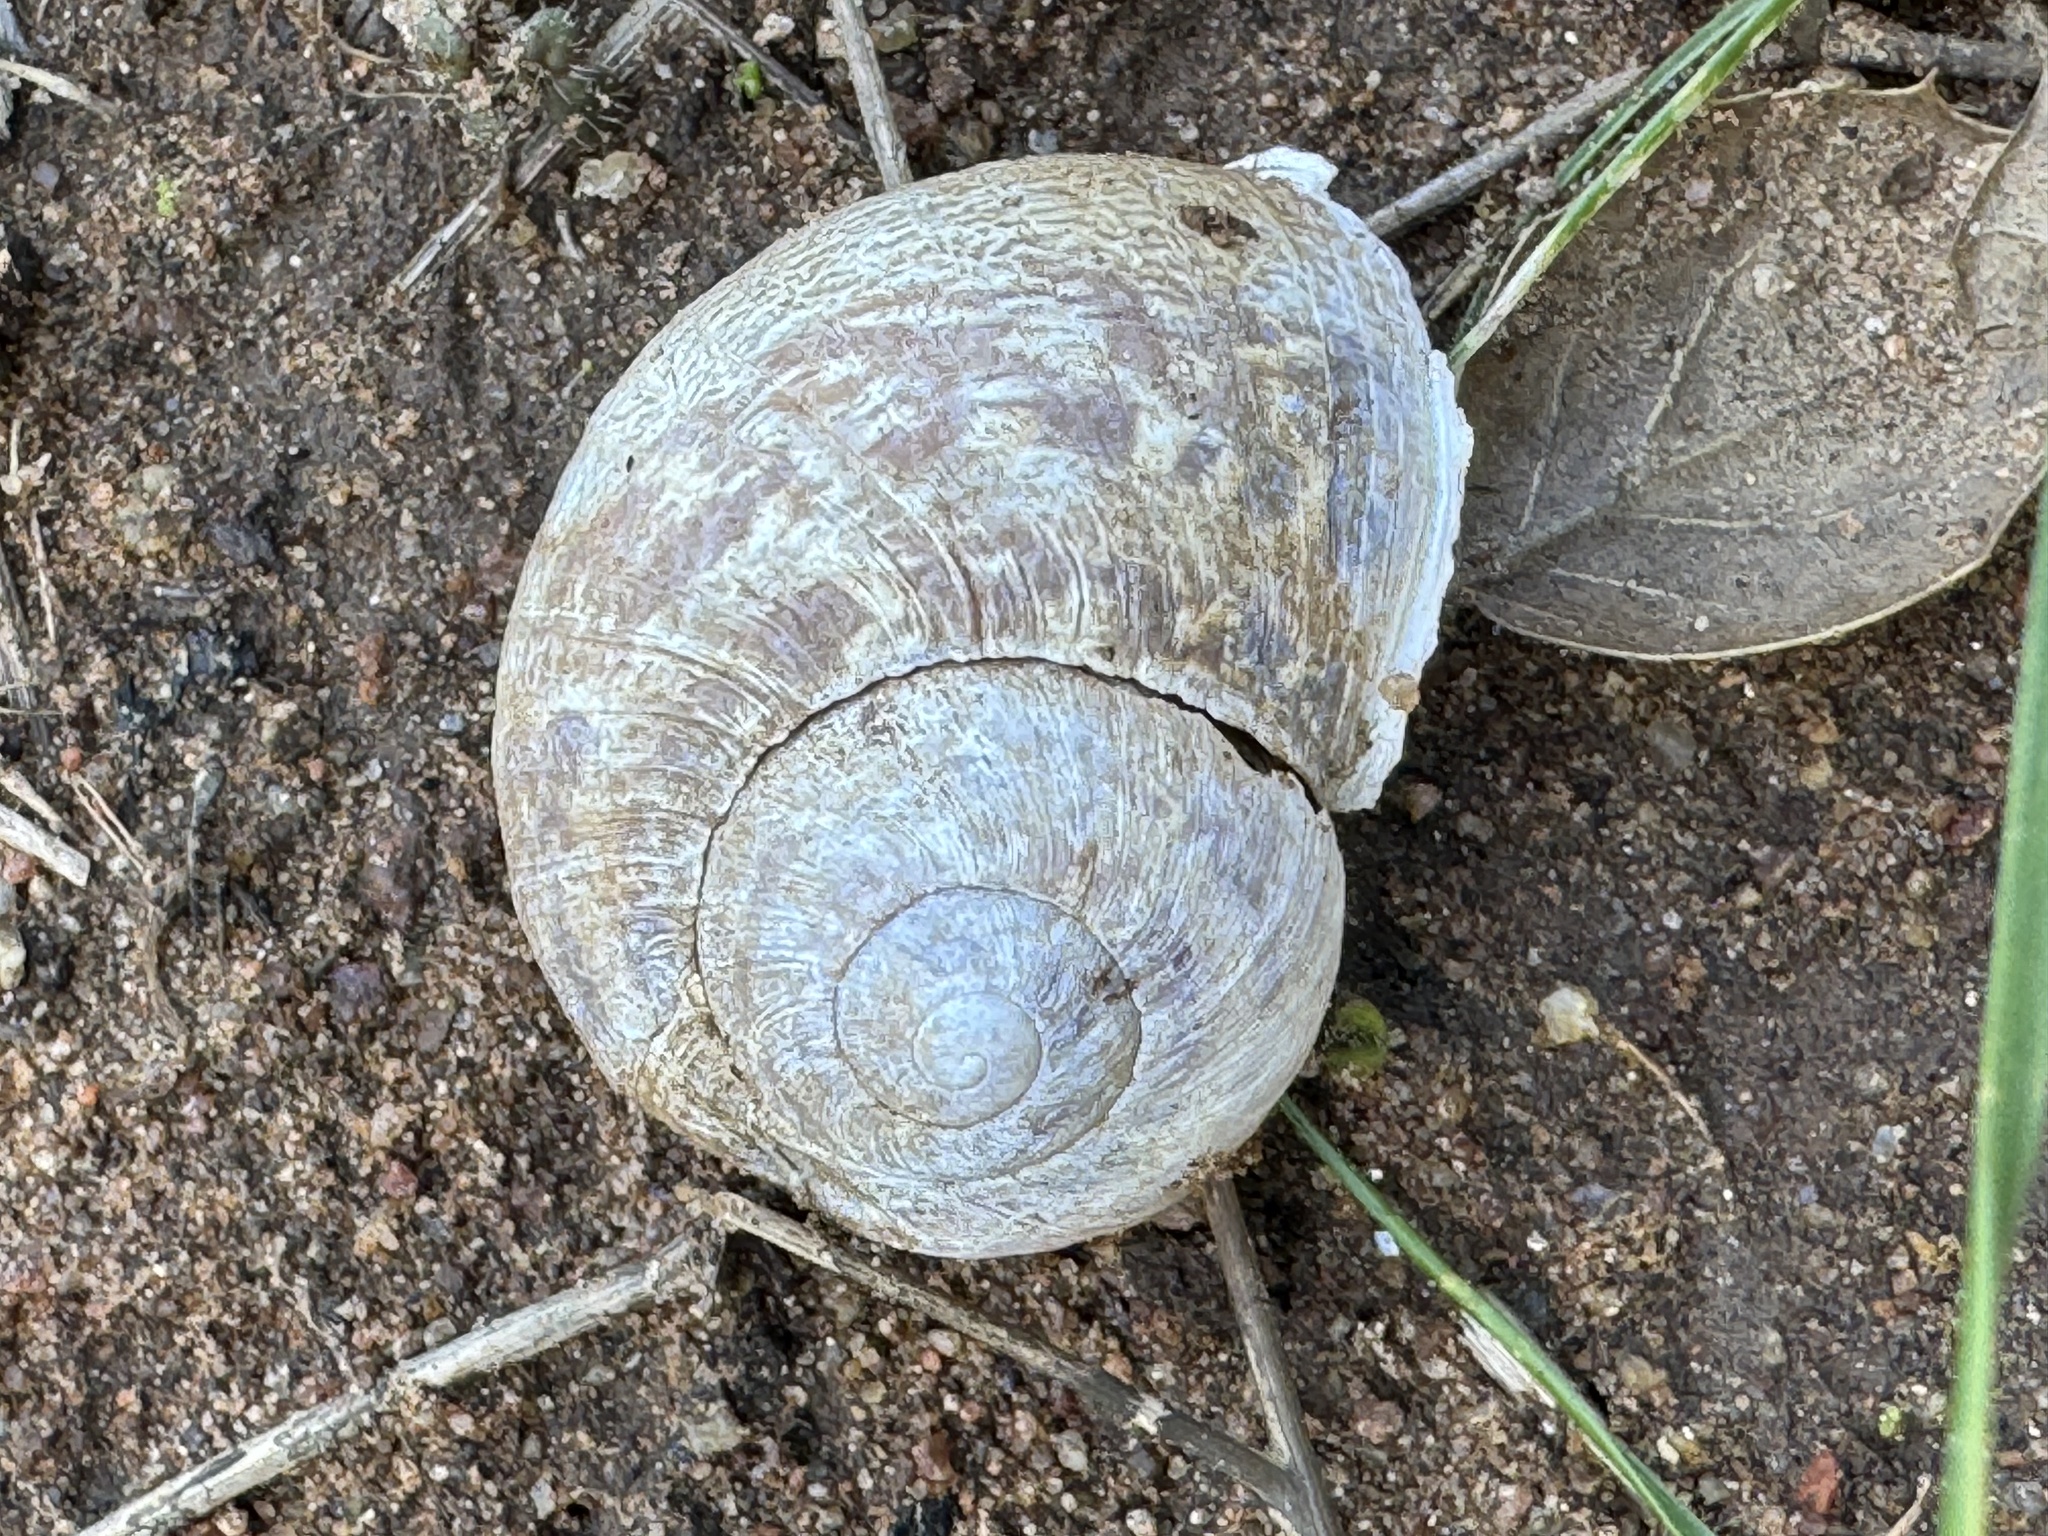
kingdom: Animalia
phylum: Mollusca
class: Gastropoda
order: Stylommatophora
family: Helicidae
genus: Cornu
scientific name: Cornu aspersum
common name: Brown garden snail
